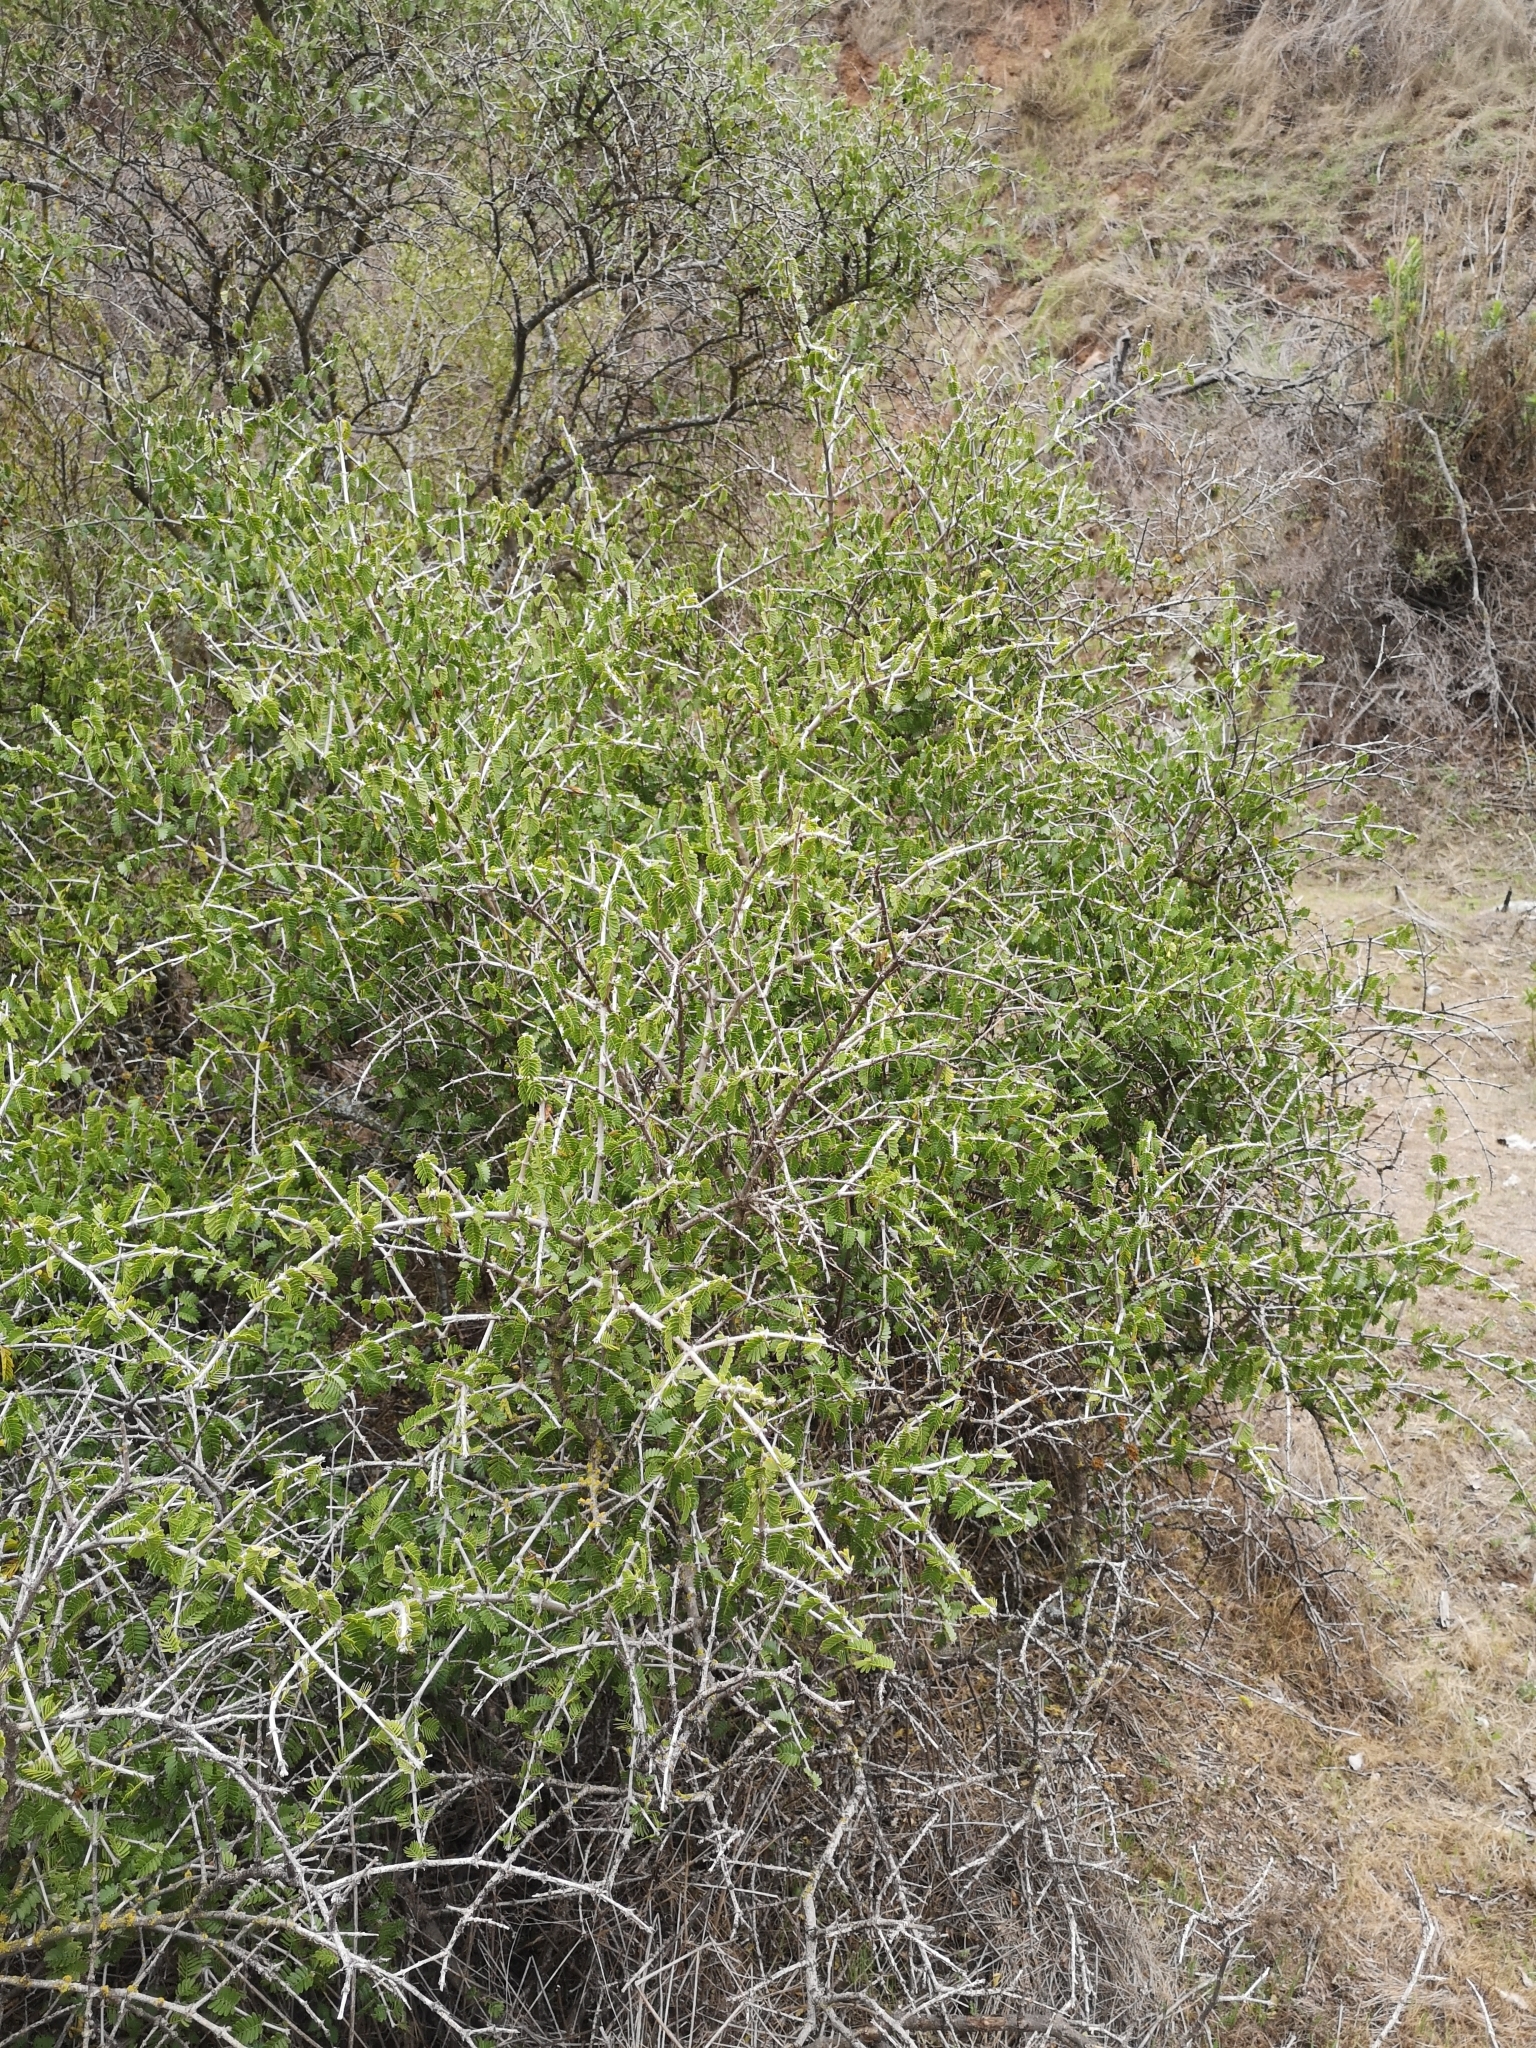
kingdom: Plantae
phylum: Tracheophyta
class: Magnoliopsida
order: Zygophyllales
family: Zygophyllaceae
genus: Porlieria
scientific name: Porlieria chilensis
